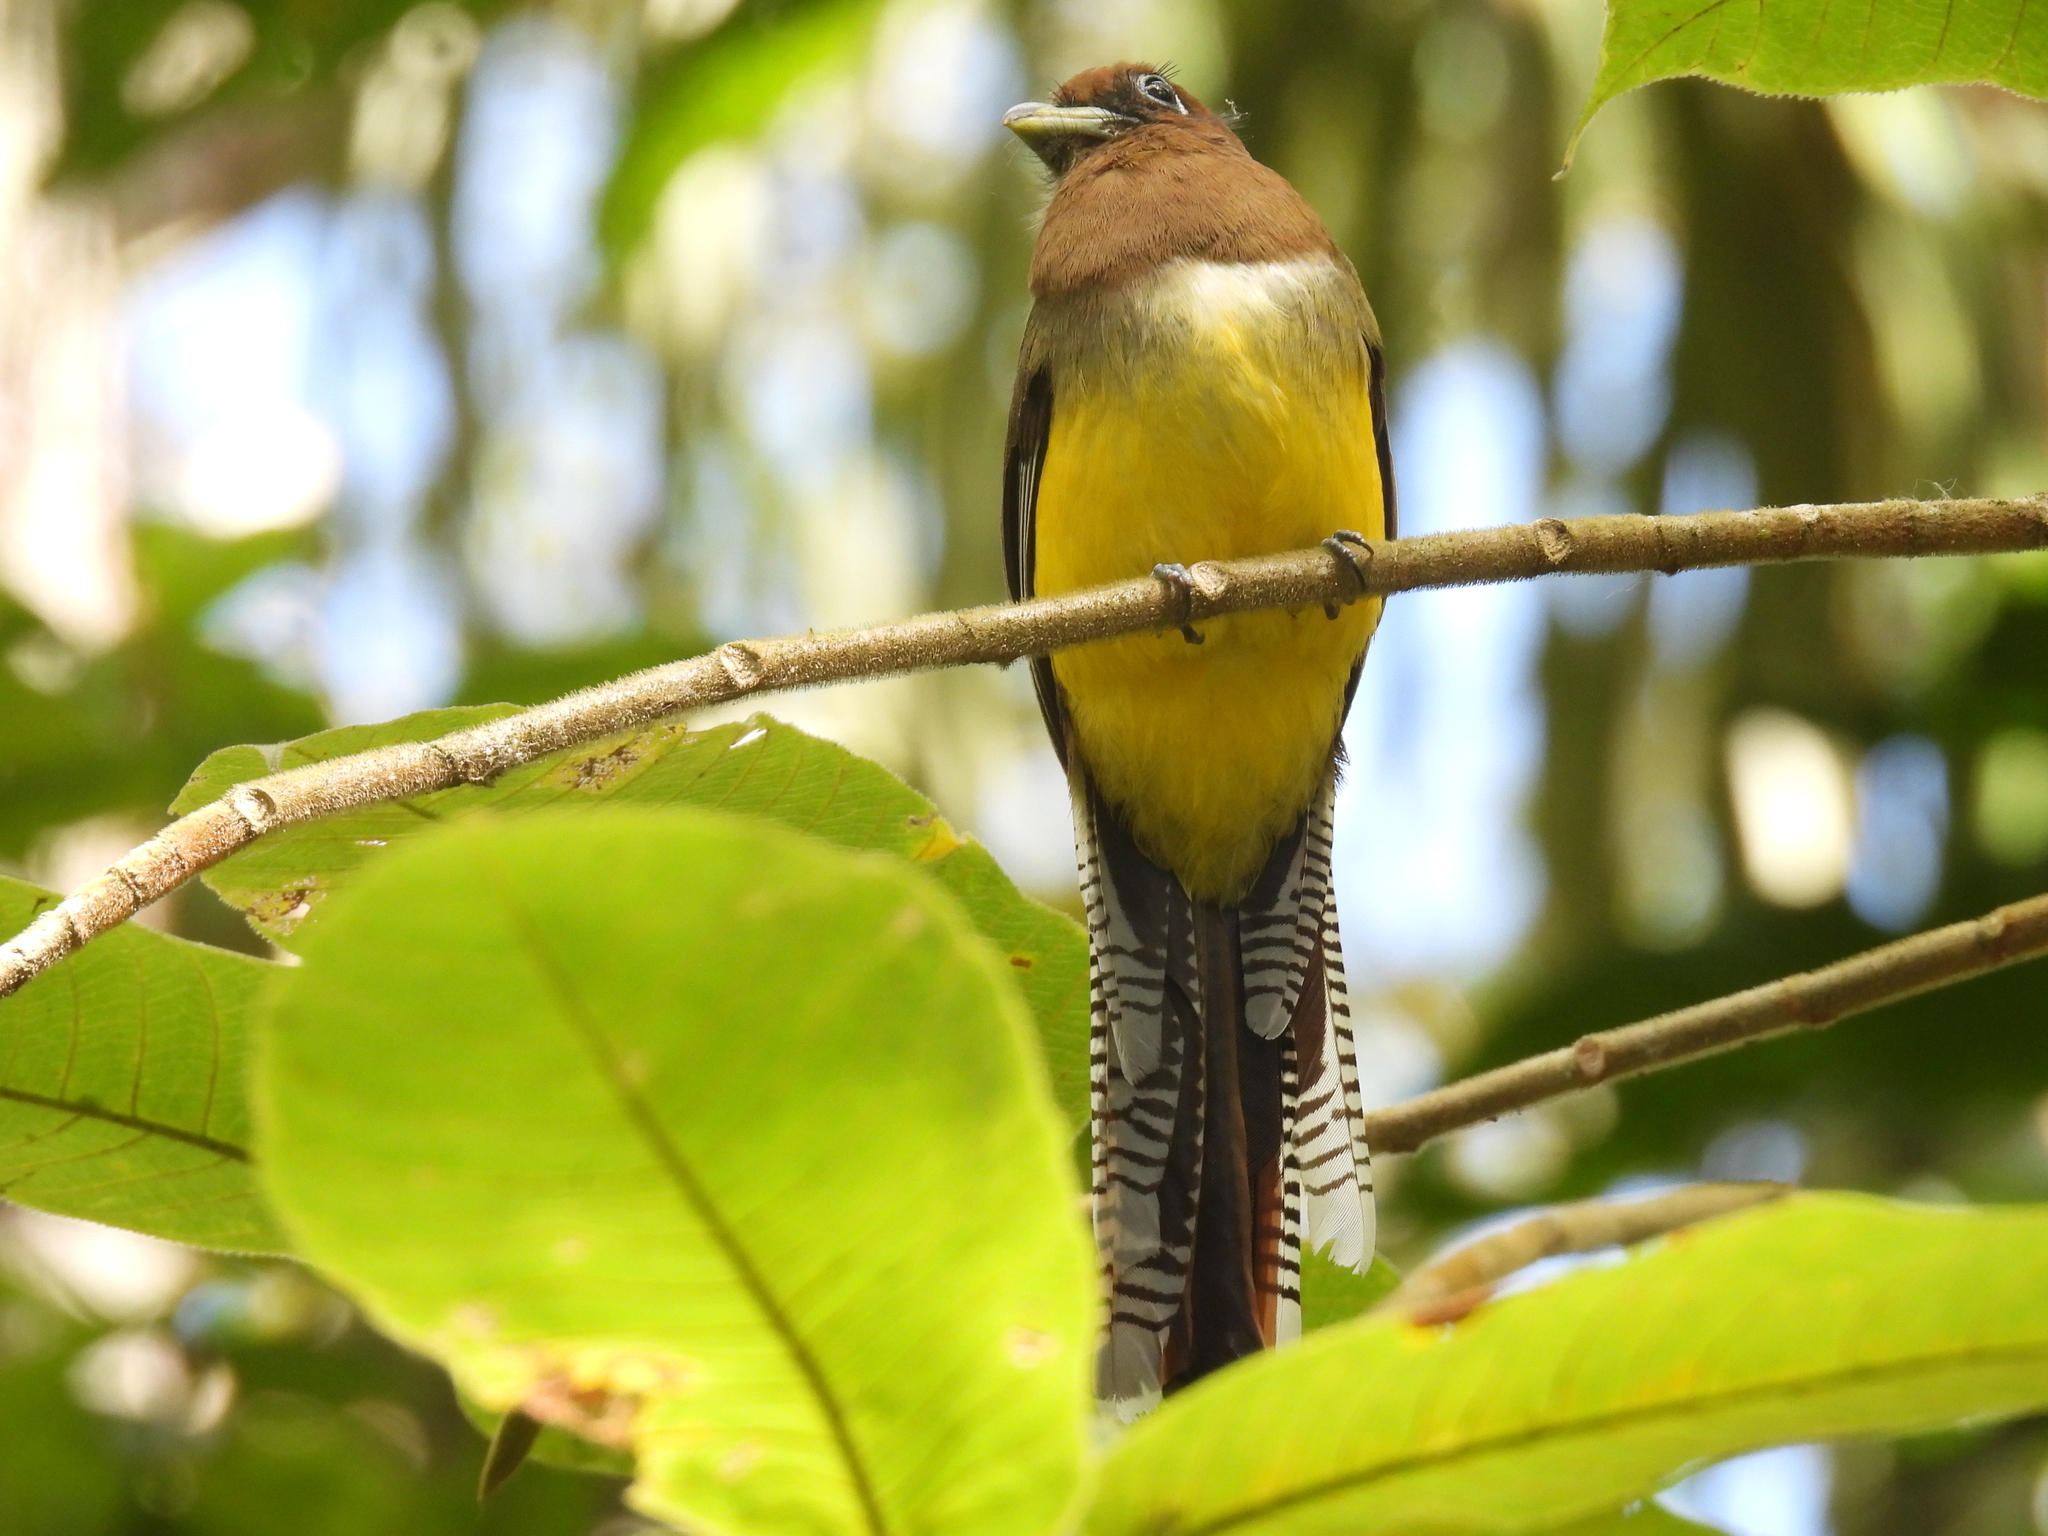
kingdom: Animalia
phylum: Chordata
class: Aves
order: Trogoniformes
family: Trogonidae
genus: Trogon
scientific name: Trogon rufus
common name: Black-throated trogon
